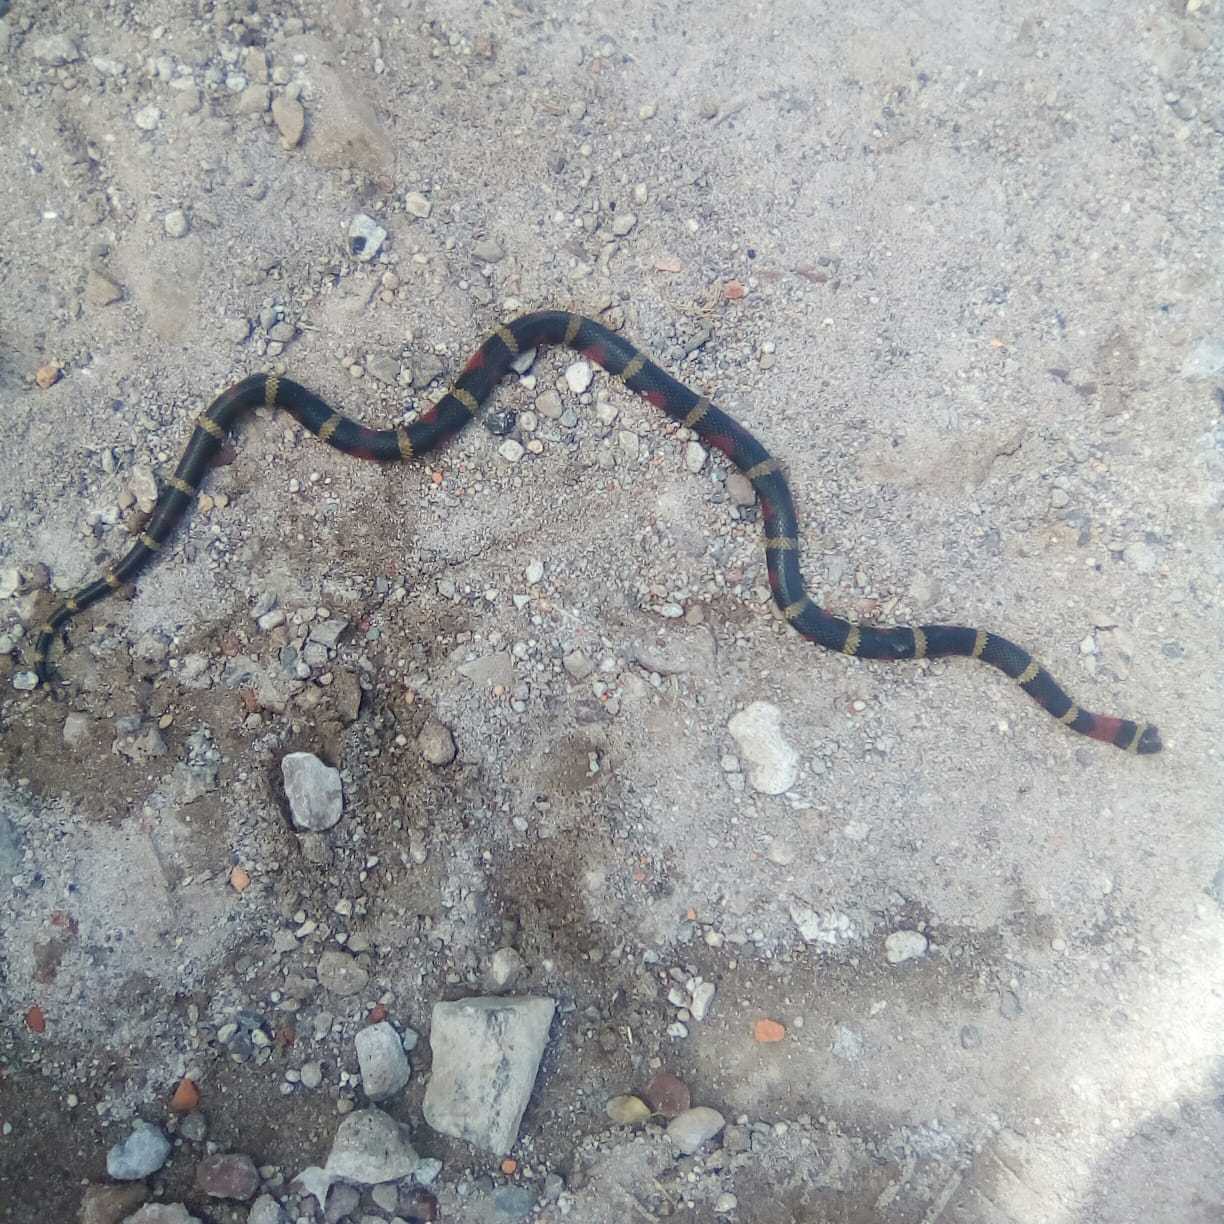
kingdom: Animalia
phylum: Chordata
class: Squamata
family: Colubridae
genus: Lampropeltis
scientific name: Lampropeltis polyzona
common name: Atlantic central american milksnake
